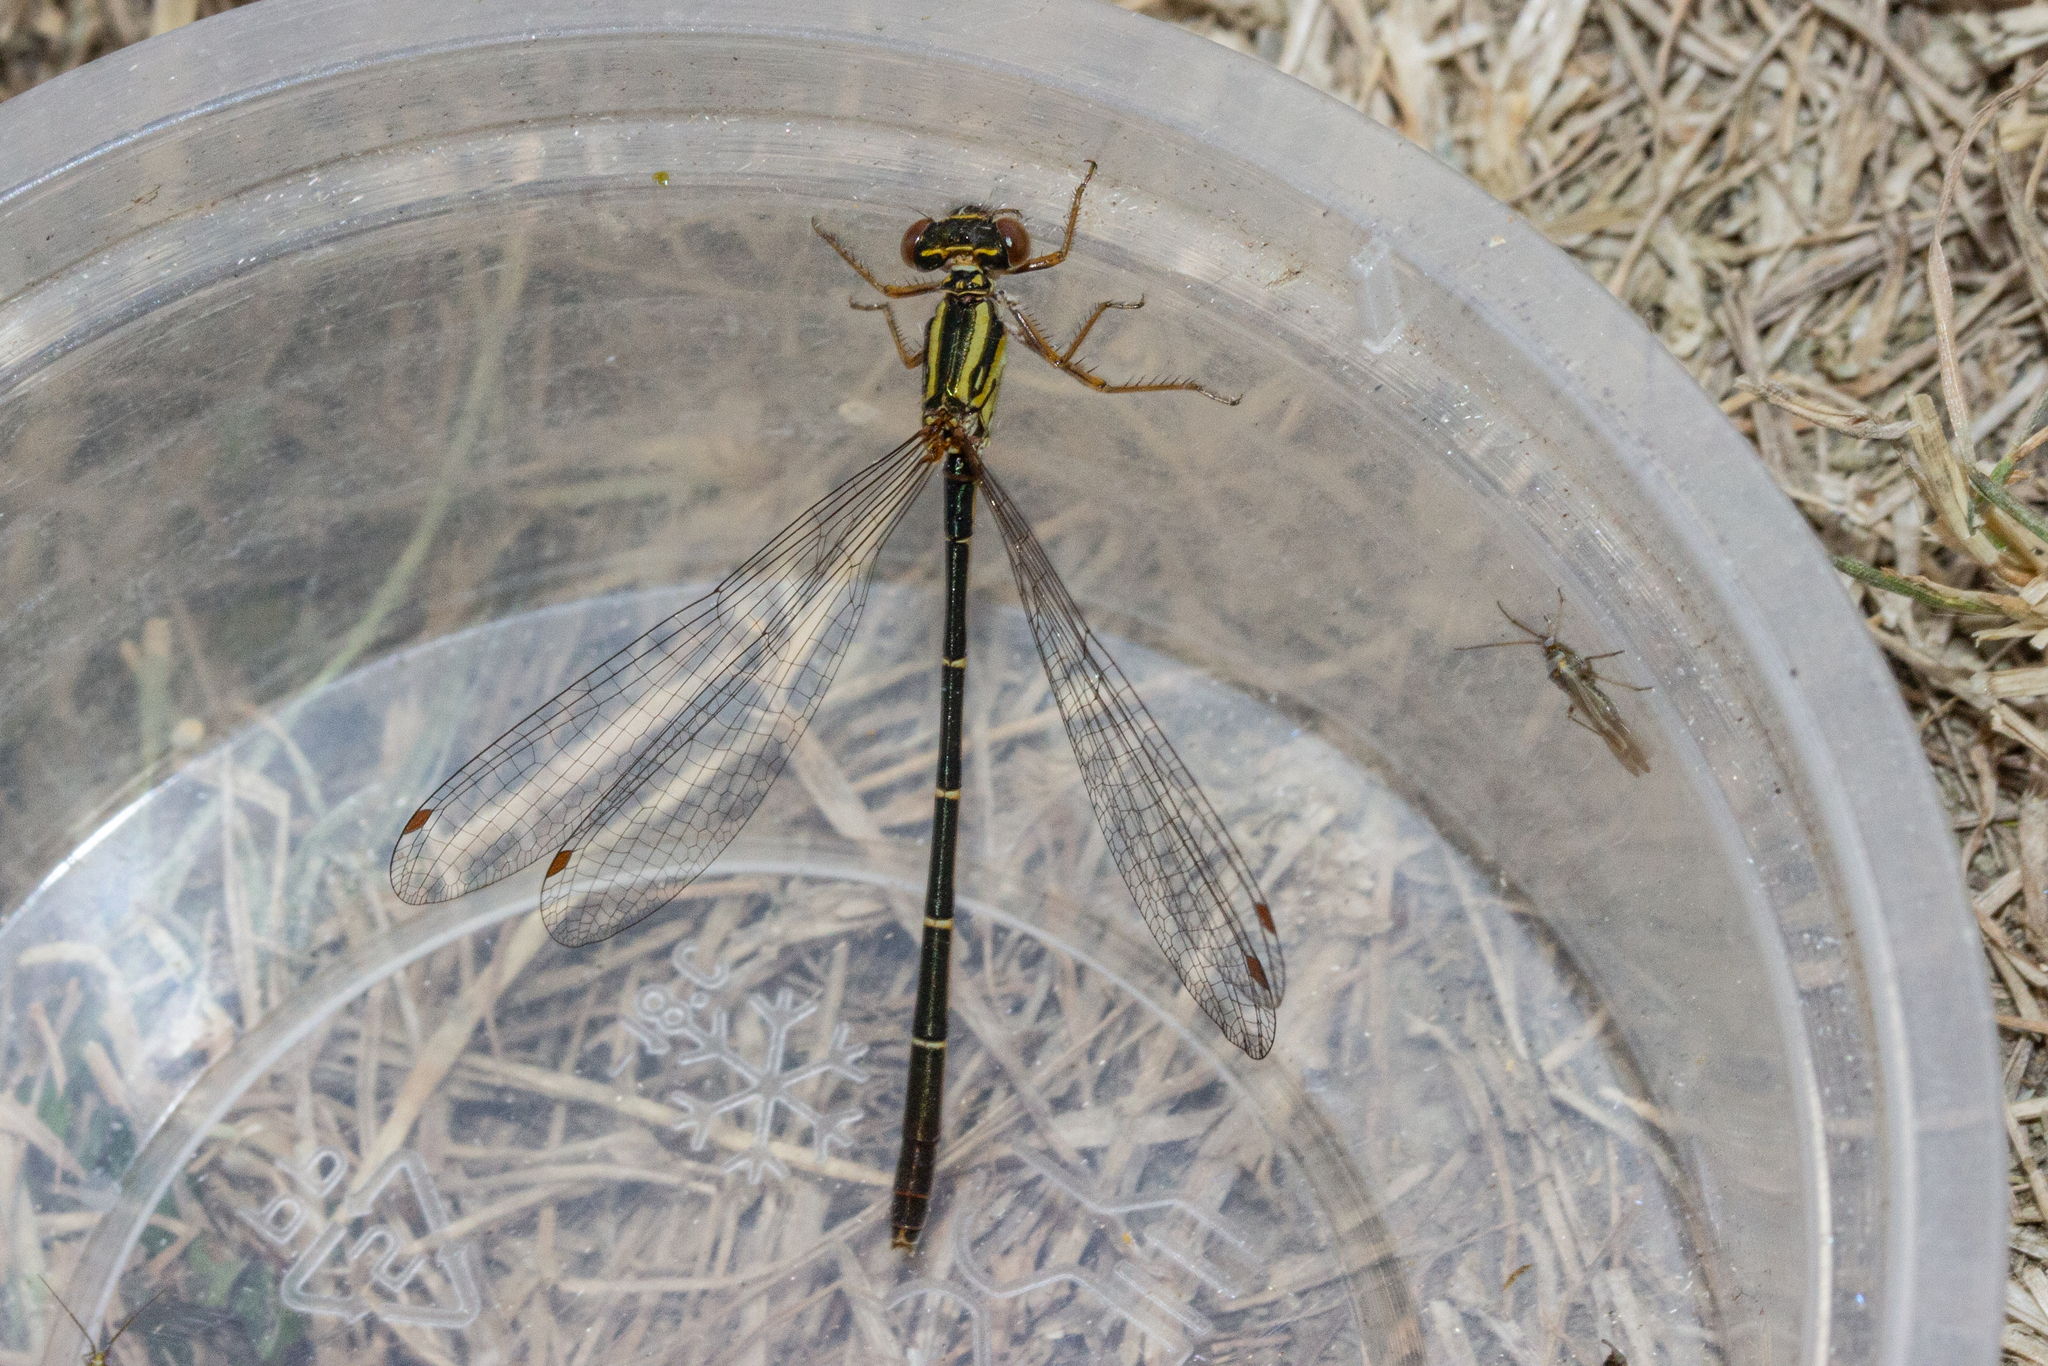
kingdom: Animalia
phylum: Arthropoda
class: Insecta
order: Odonata
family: Coenagrionidae
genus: Xanthocnemis
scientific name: Xanthocnemis zealandica
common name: Common redcoat damselfly
